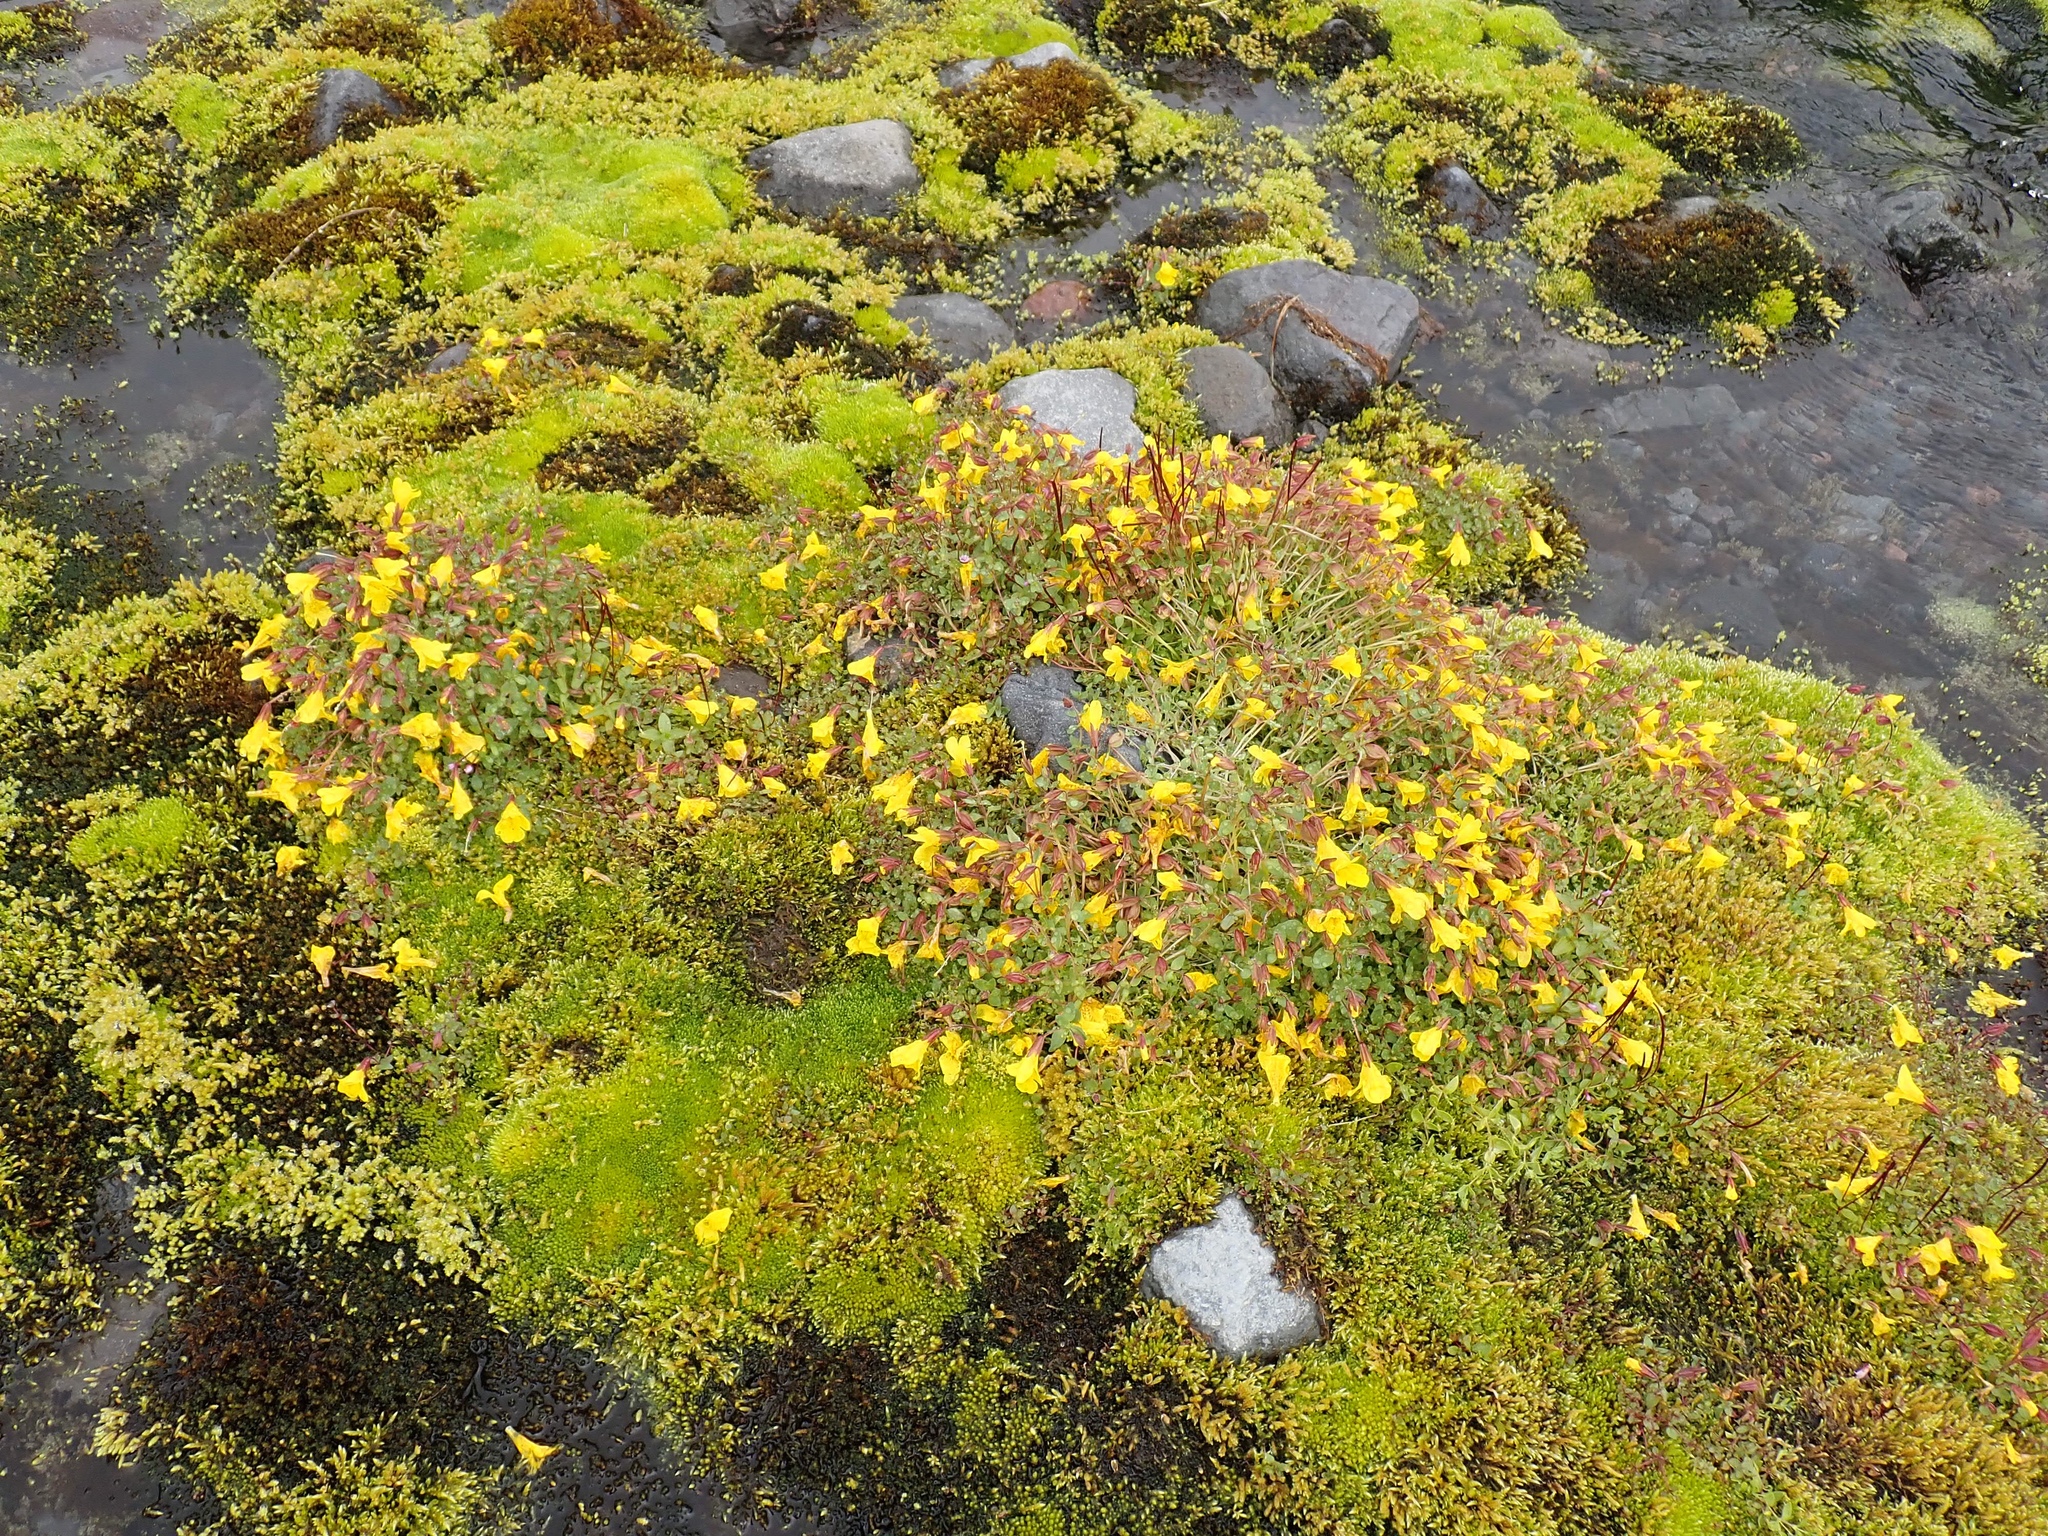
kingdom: Plantae
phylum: Tracheophyta
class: Magnoliopsida
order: Lamiales
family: Phrymaceae
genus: Erythranthe
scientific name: Erythranthe caespitosa
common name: Subalpine monkeyflower
